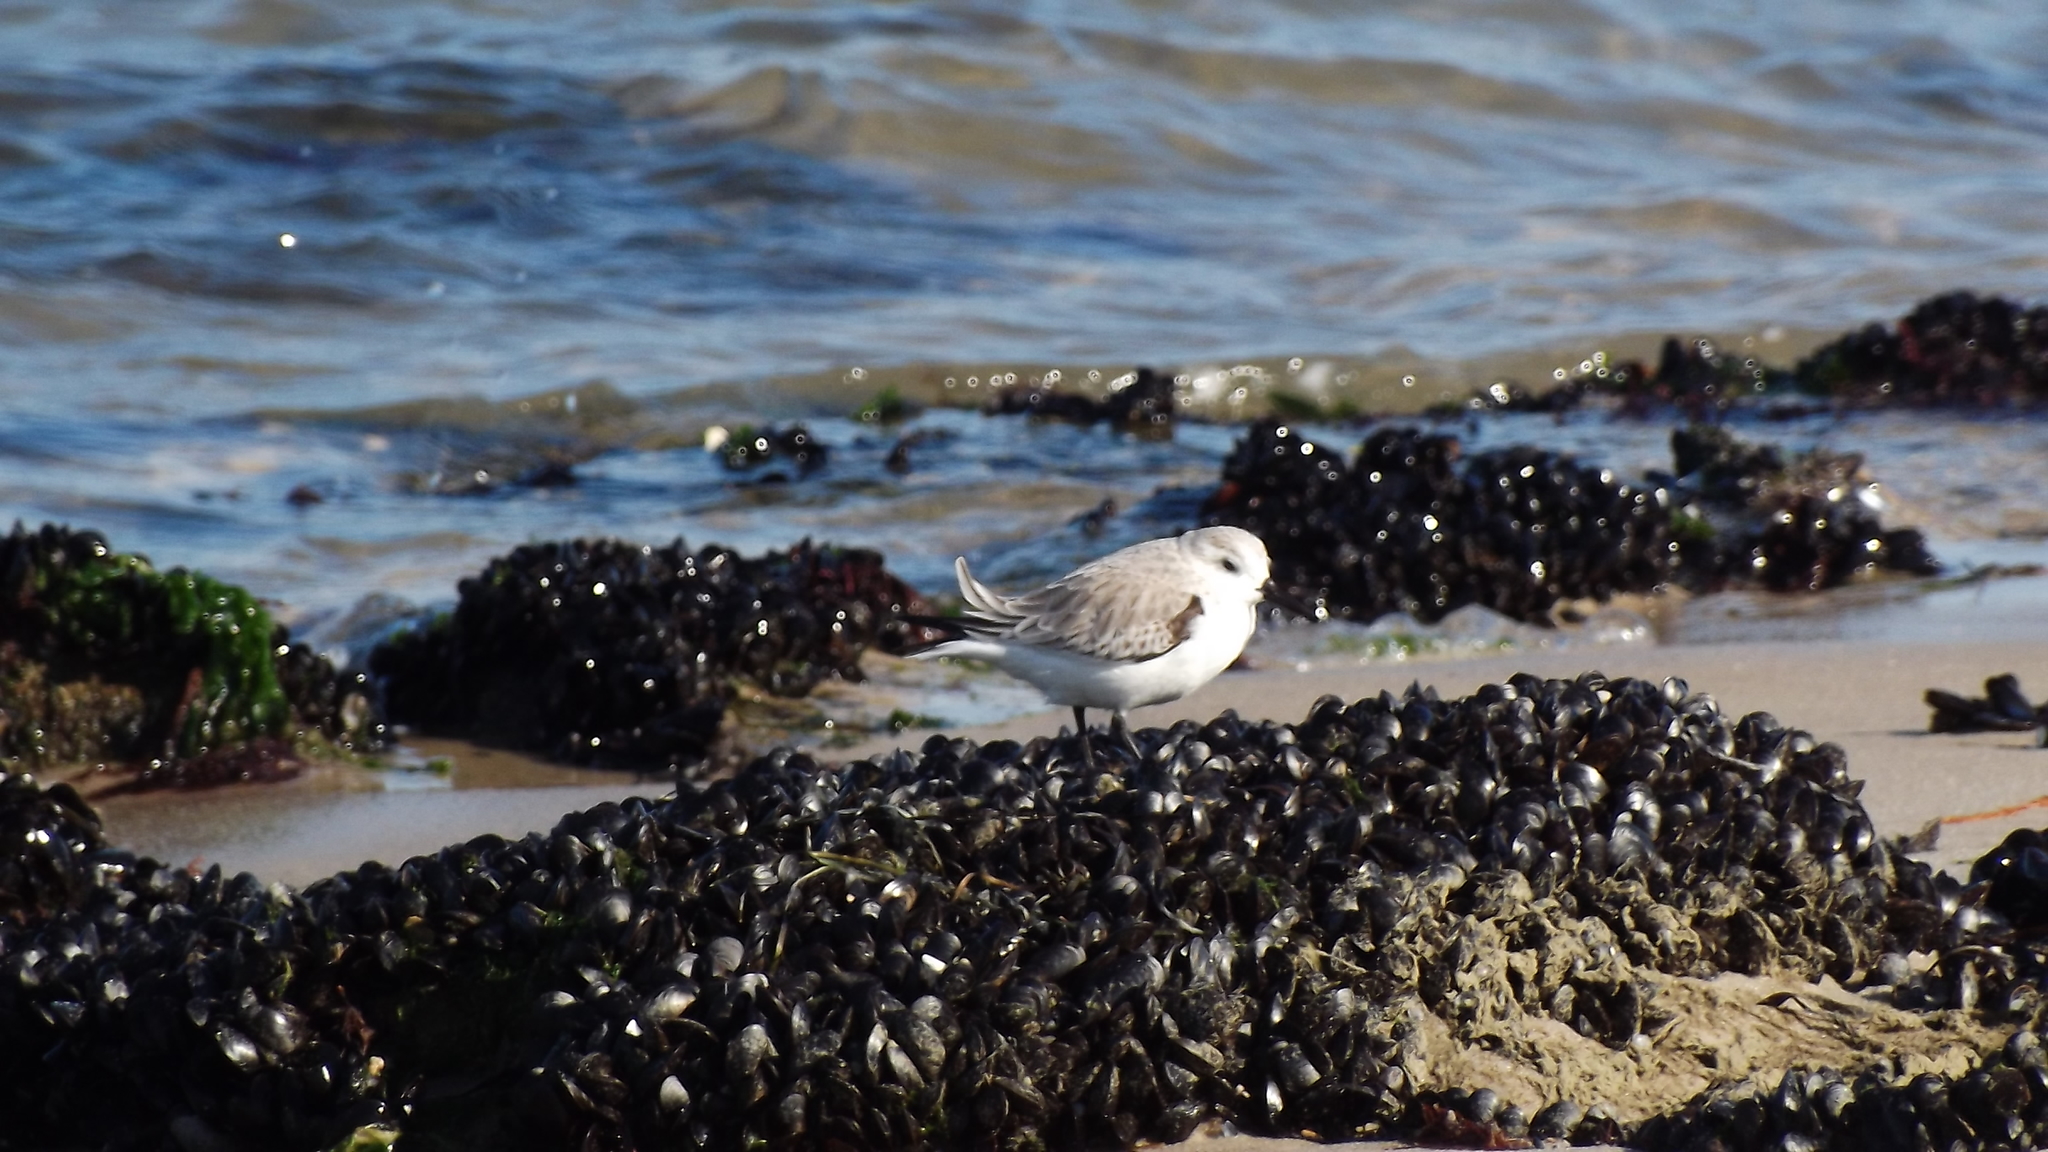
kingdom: Animalia
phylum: Chordata
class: Aves
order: Charadriiformes
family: Scolopacidae
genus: Calidris
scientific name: Calidris alba
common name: Sanderling
